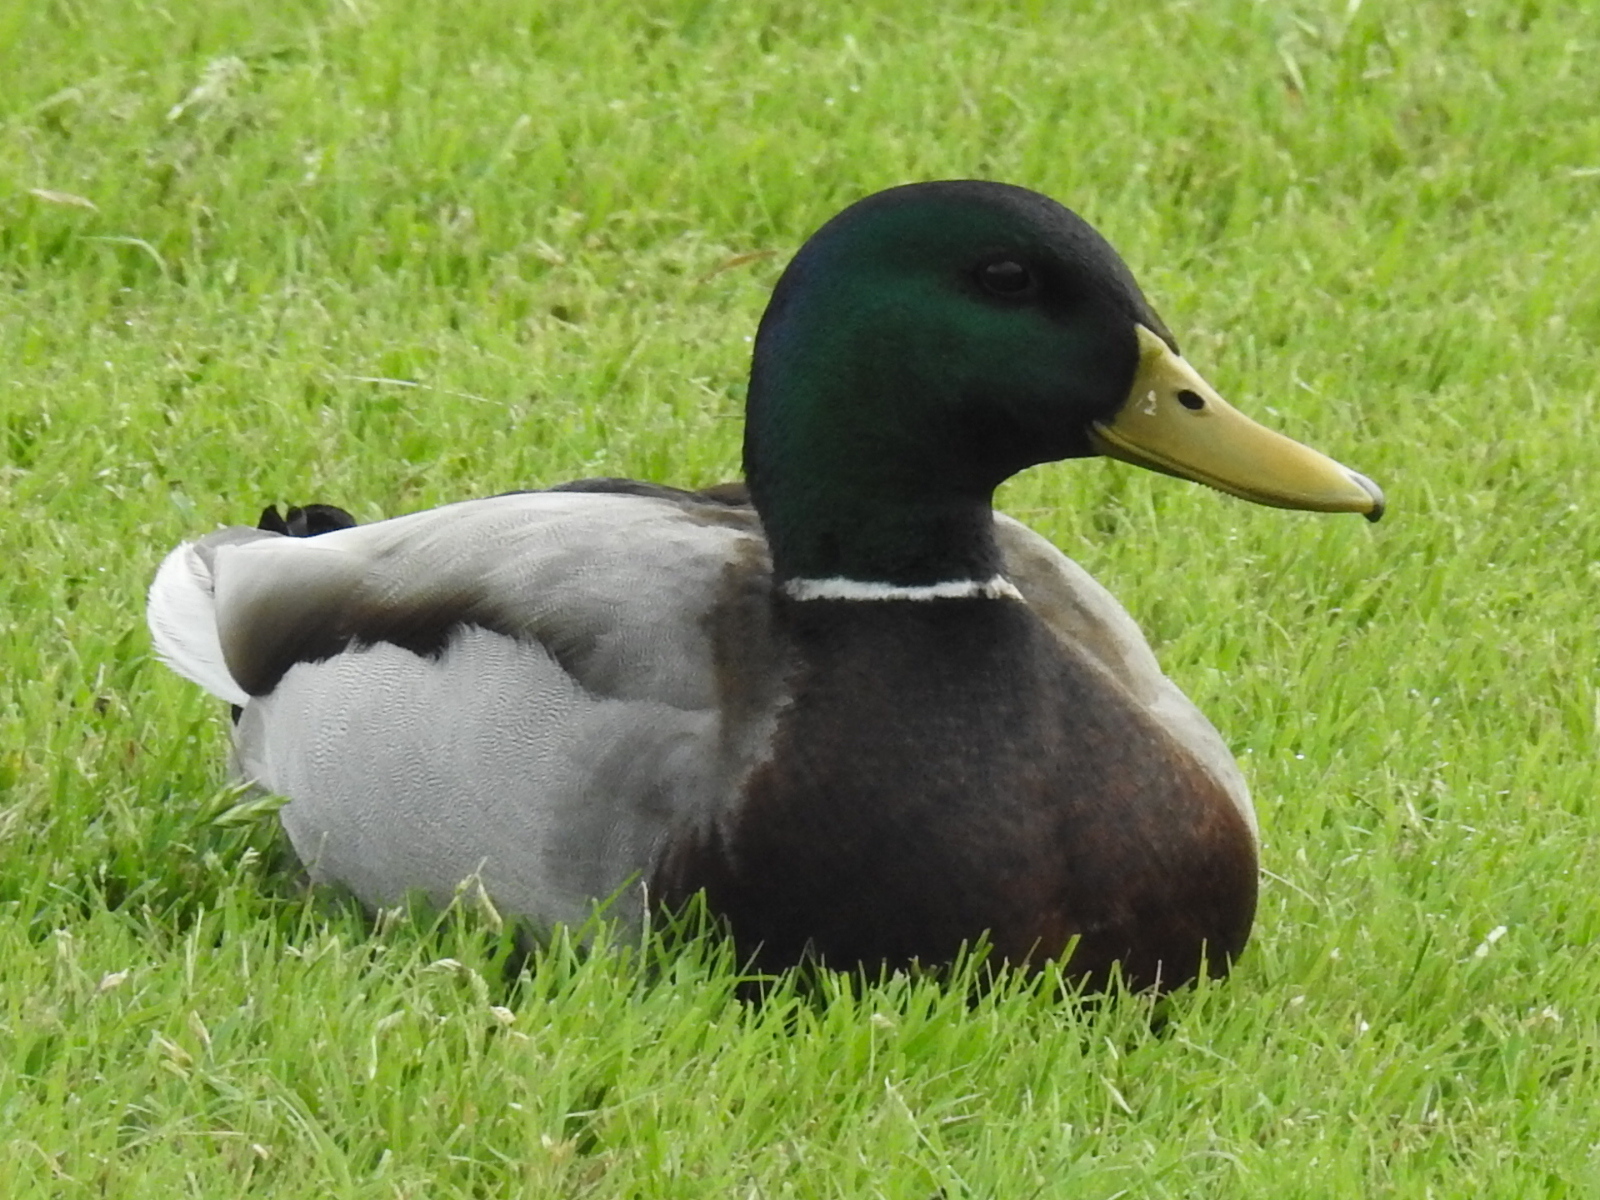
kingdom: Animalia
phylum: Chordata
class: Aves
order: Anseriformes
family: Anatidae
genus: Anas
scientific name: Anas platyrhynchos
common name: Mallard
